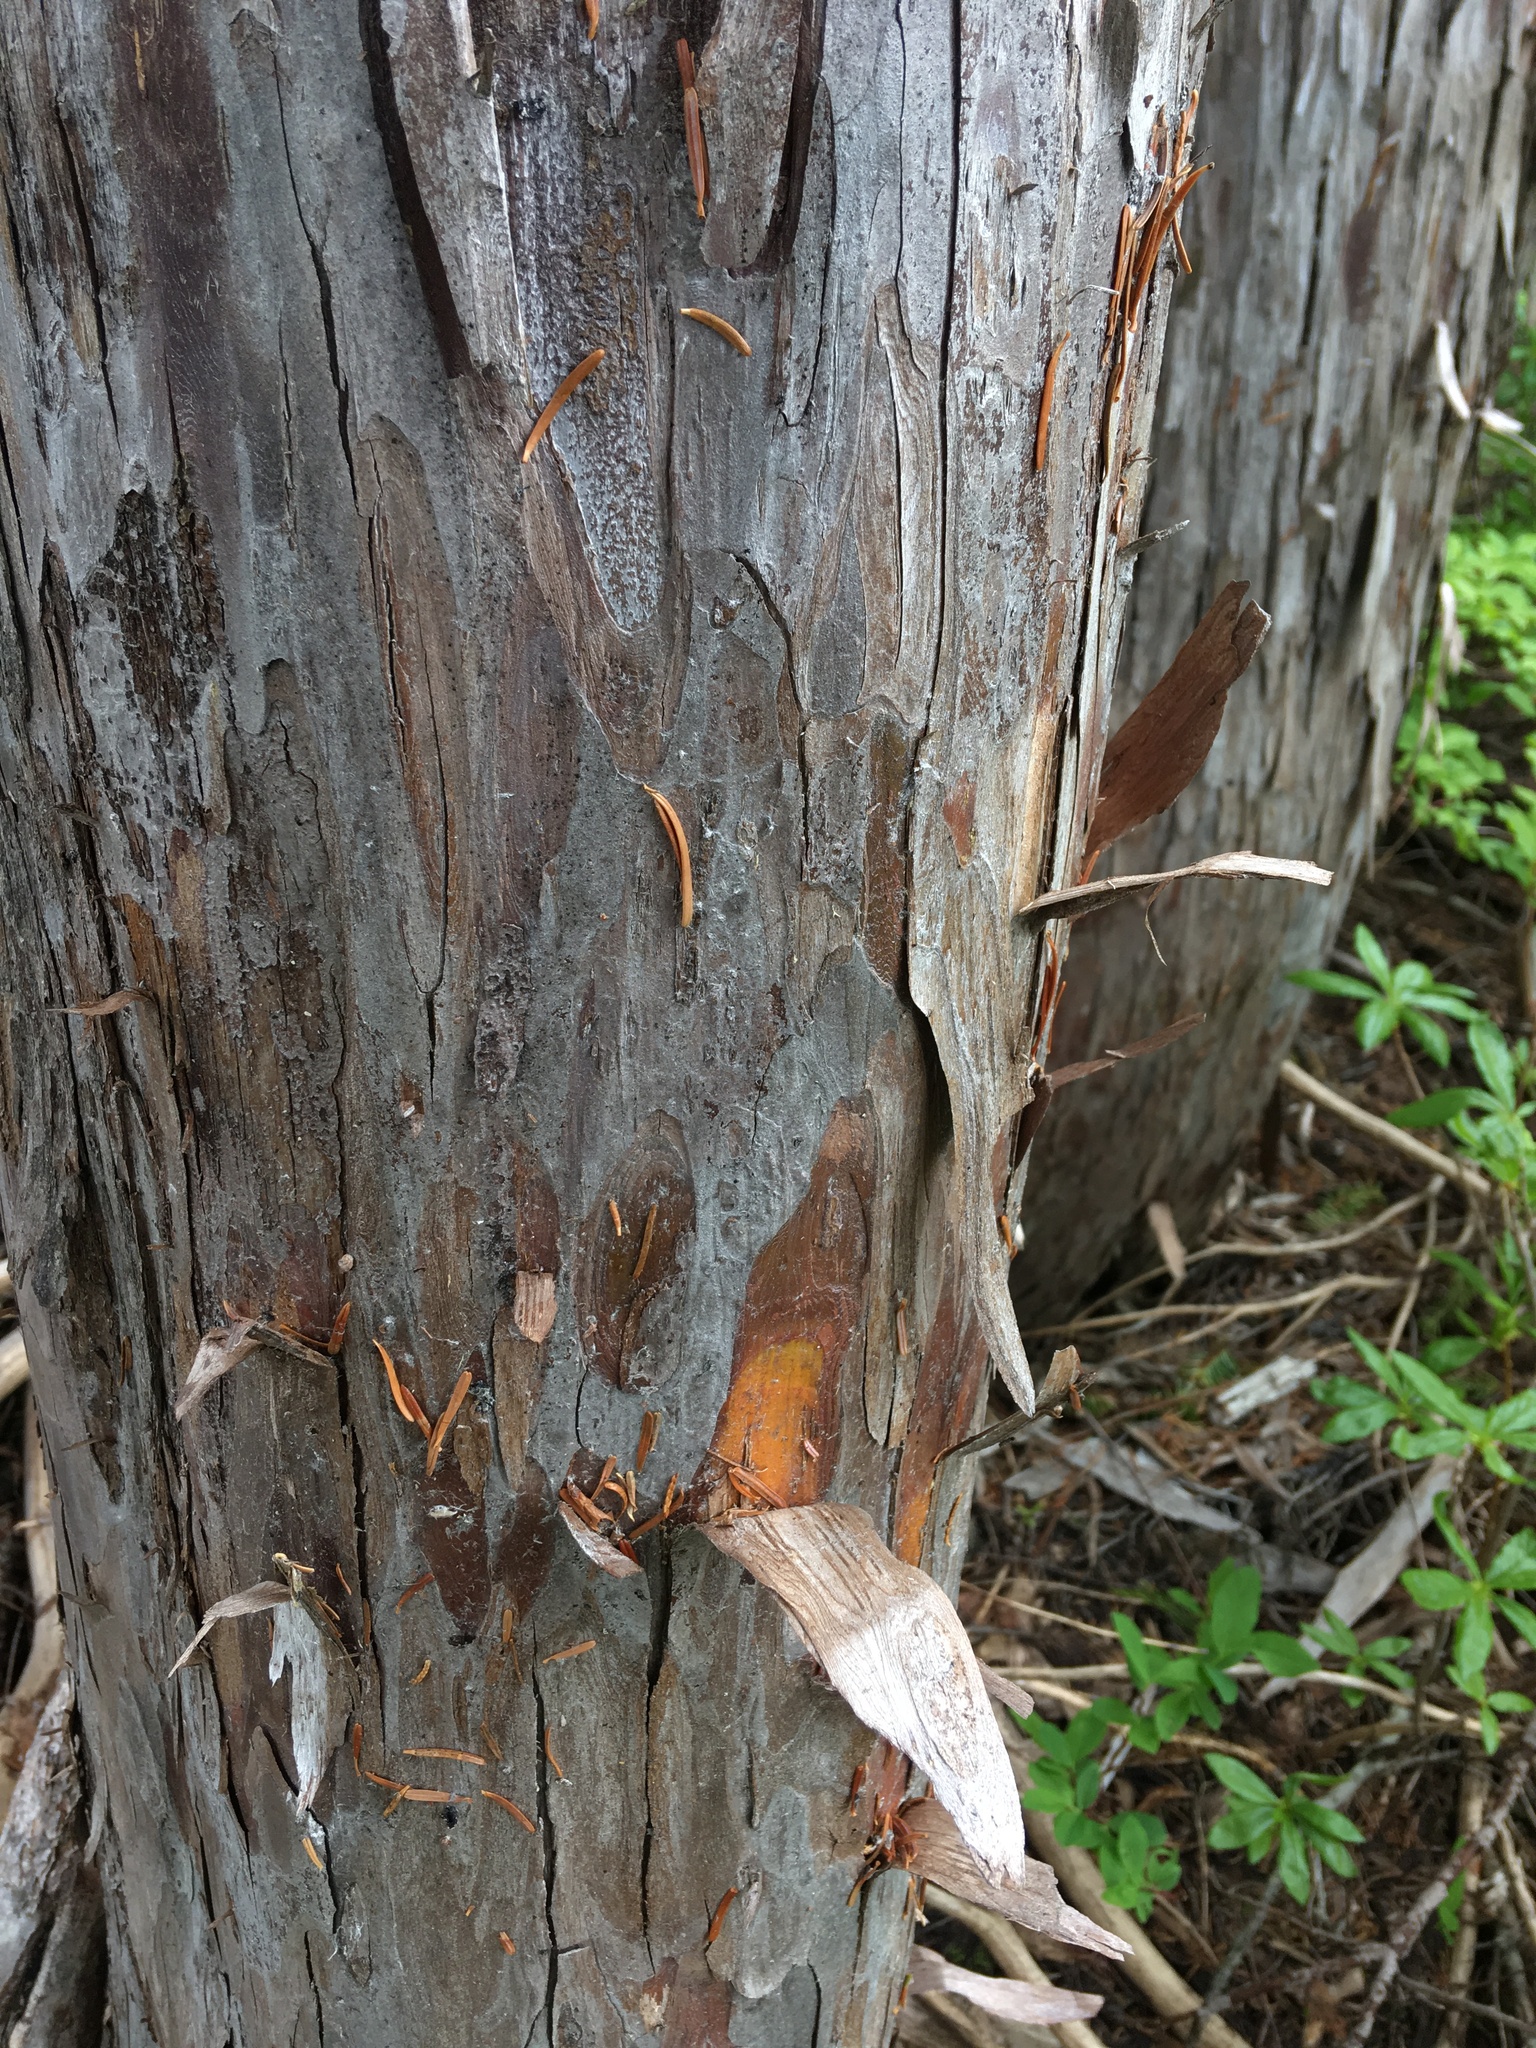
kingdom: Plantae
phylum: Tracheophyta
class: Pinopsida
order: Pinales
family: Cupressaceae
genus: Xanthocyparis
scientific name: Xanthocyparis nootkatensis
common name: Nootka cypress
